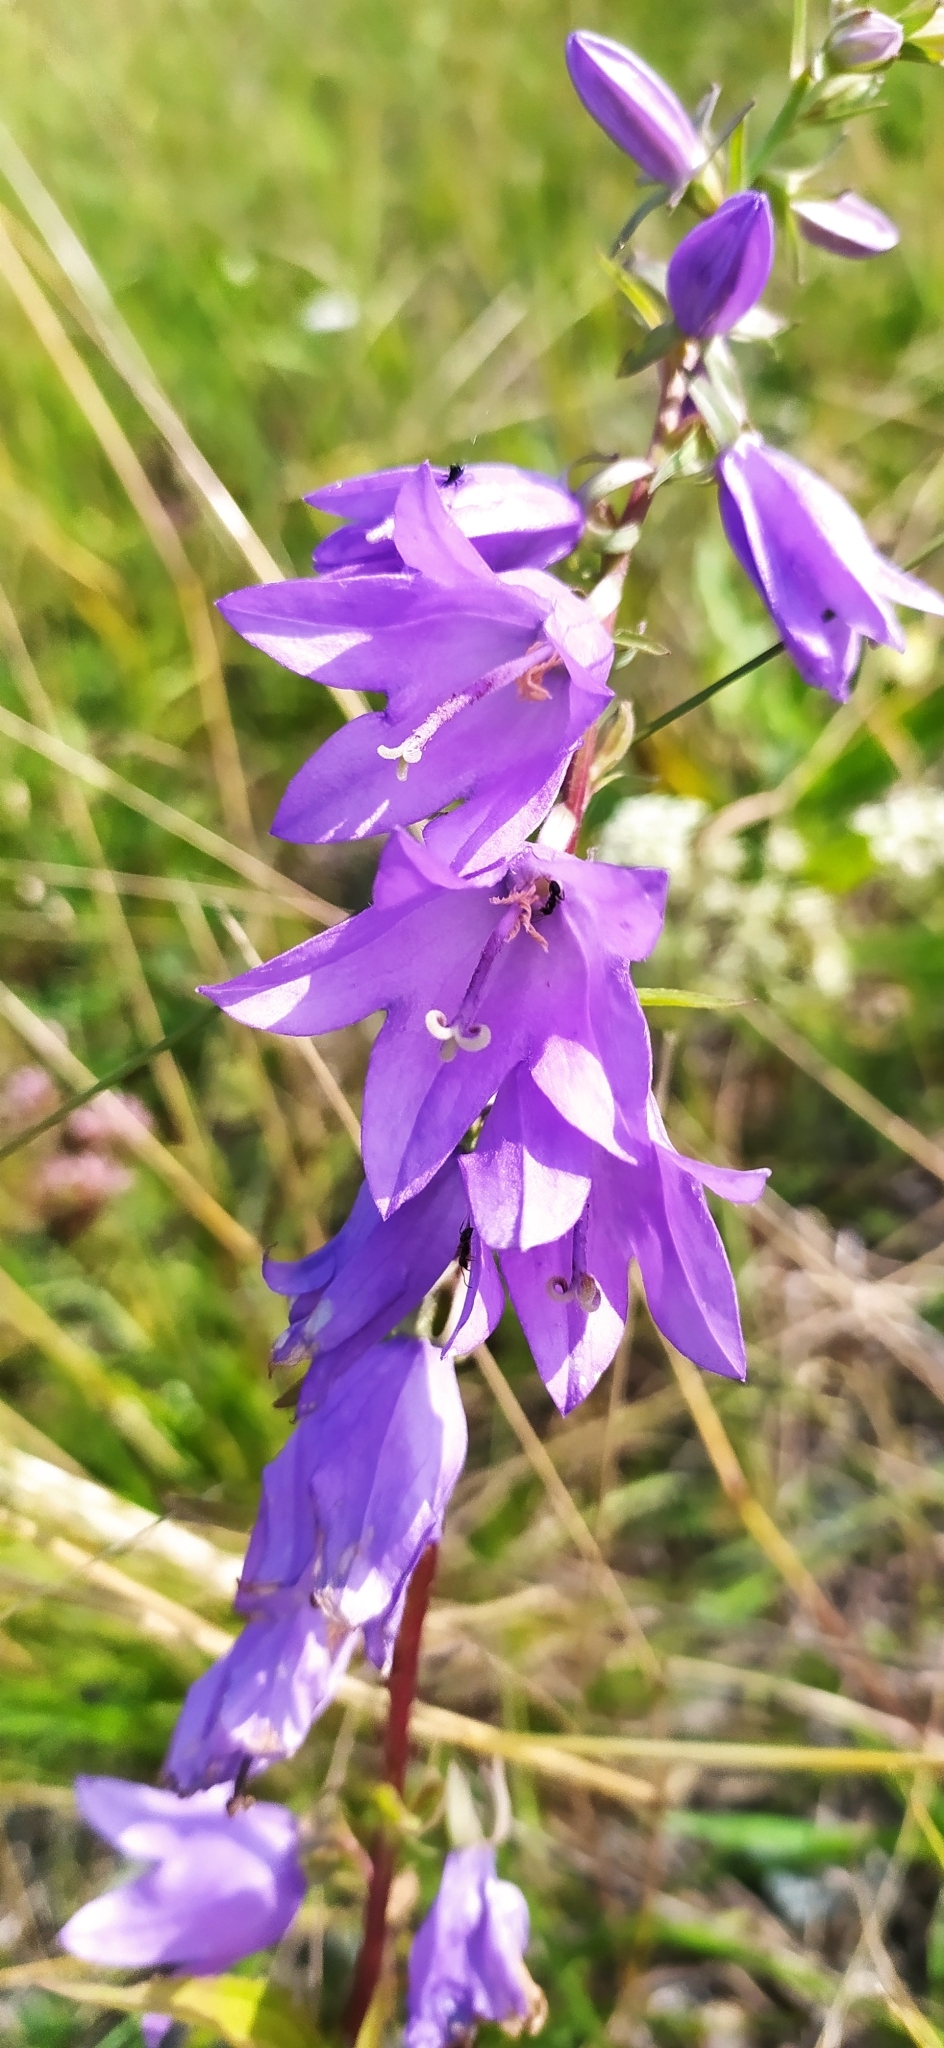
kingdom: Plantae
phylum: Tracheophyta
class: Magnoliopsida
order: Asterales
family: Campanulaceae
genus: Campanula
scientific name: Campanula rapunculoides
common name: Creeping bellflower
